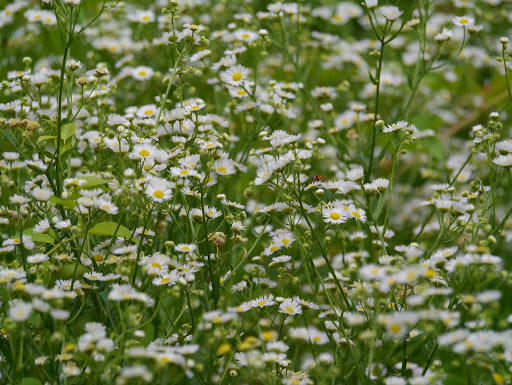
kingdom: Plantae
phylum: Tracheophyta
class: Magnoliopsida
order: Asterales
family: Asteraceae
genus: Erigeron
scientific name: Erigeron annuus
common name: Tall fleabane
